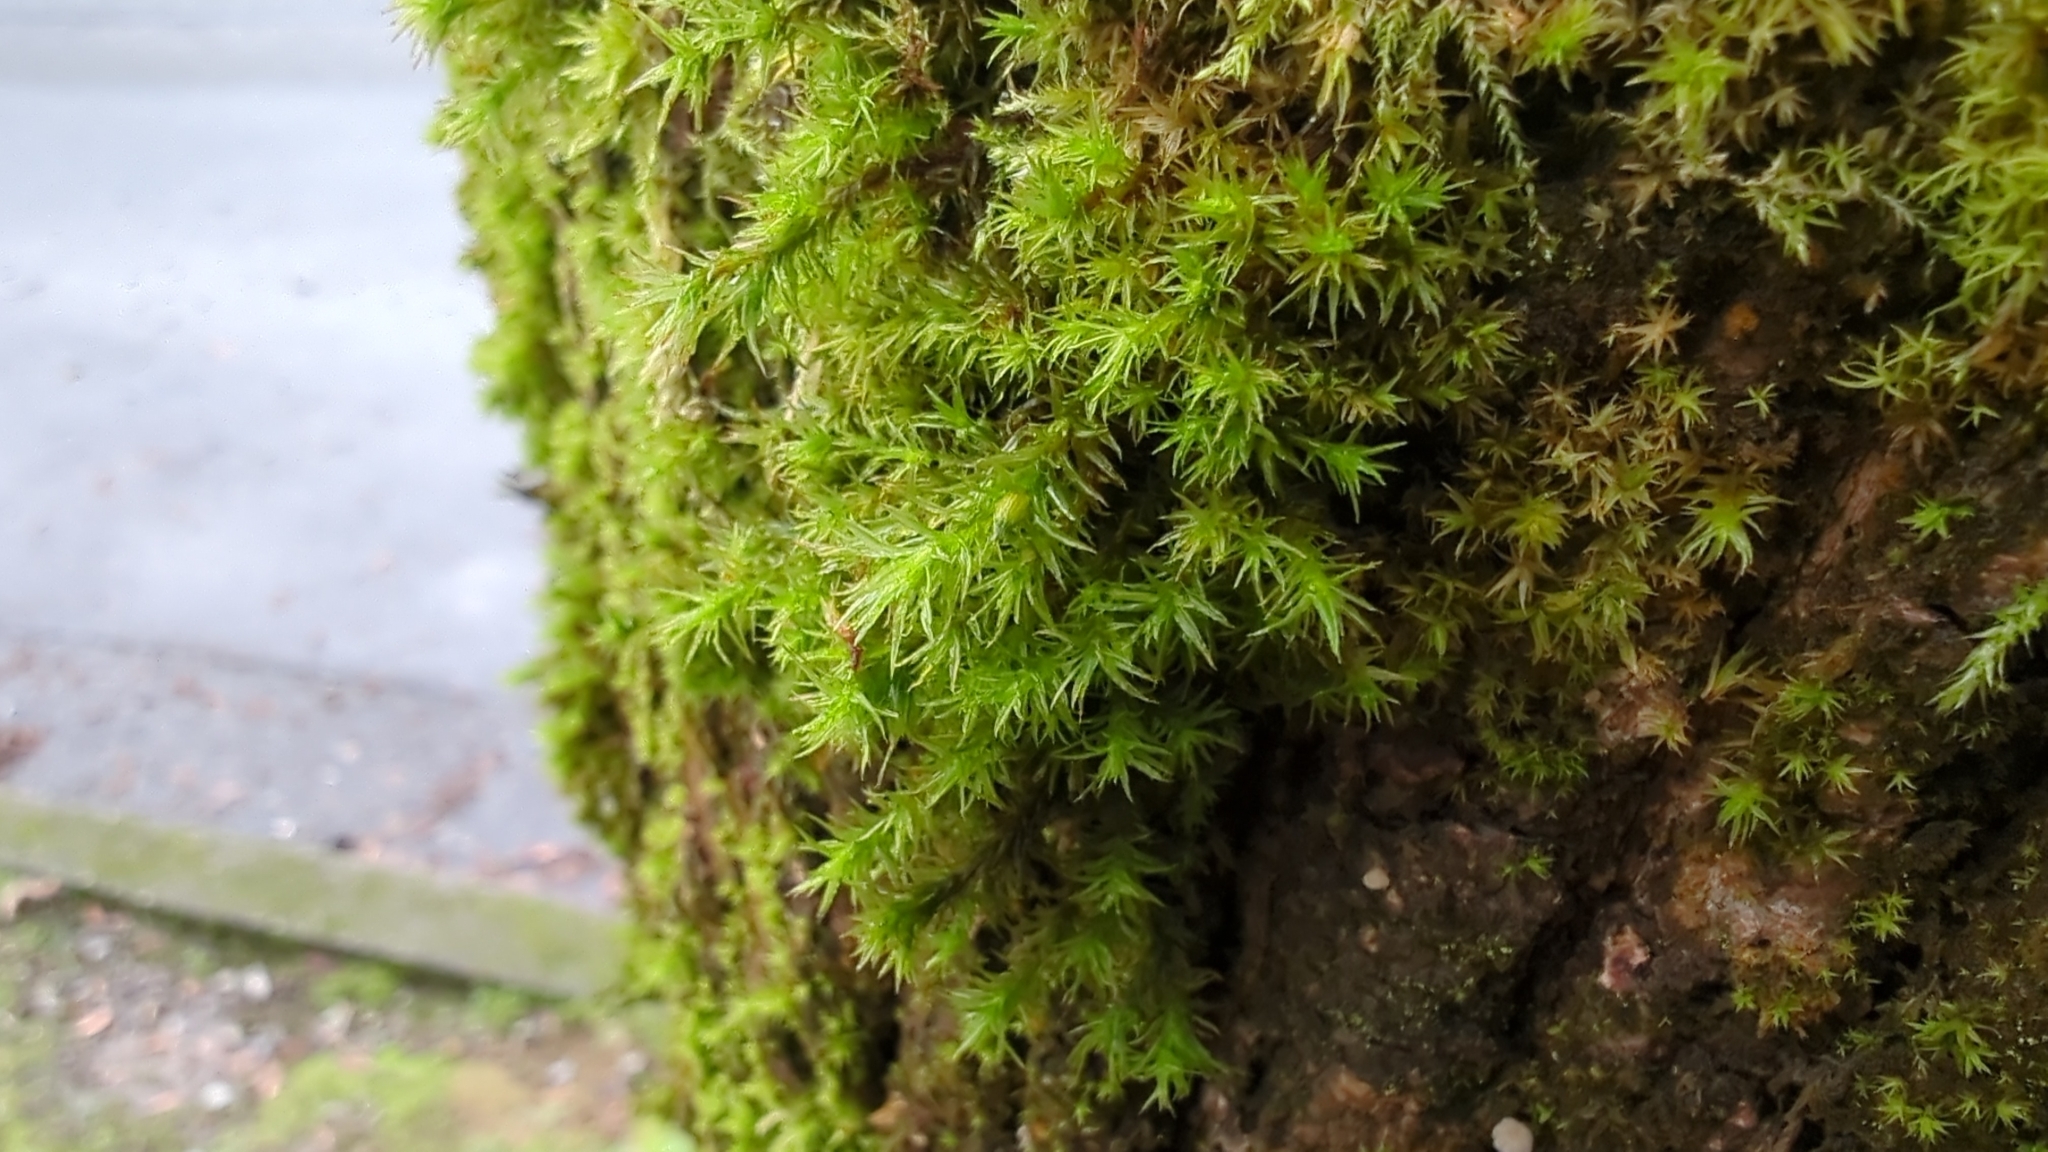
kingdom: Plantae
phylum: Bryophyta
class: Bryopsida
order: Orthotrichales
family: Orthotrichaceae
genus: Pulvigera
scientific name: Pulvigera papillosa
